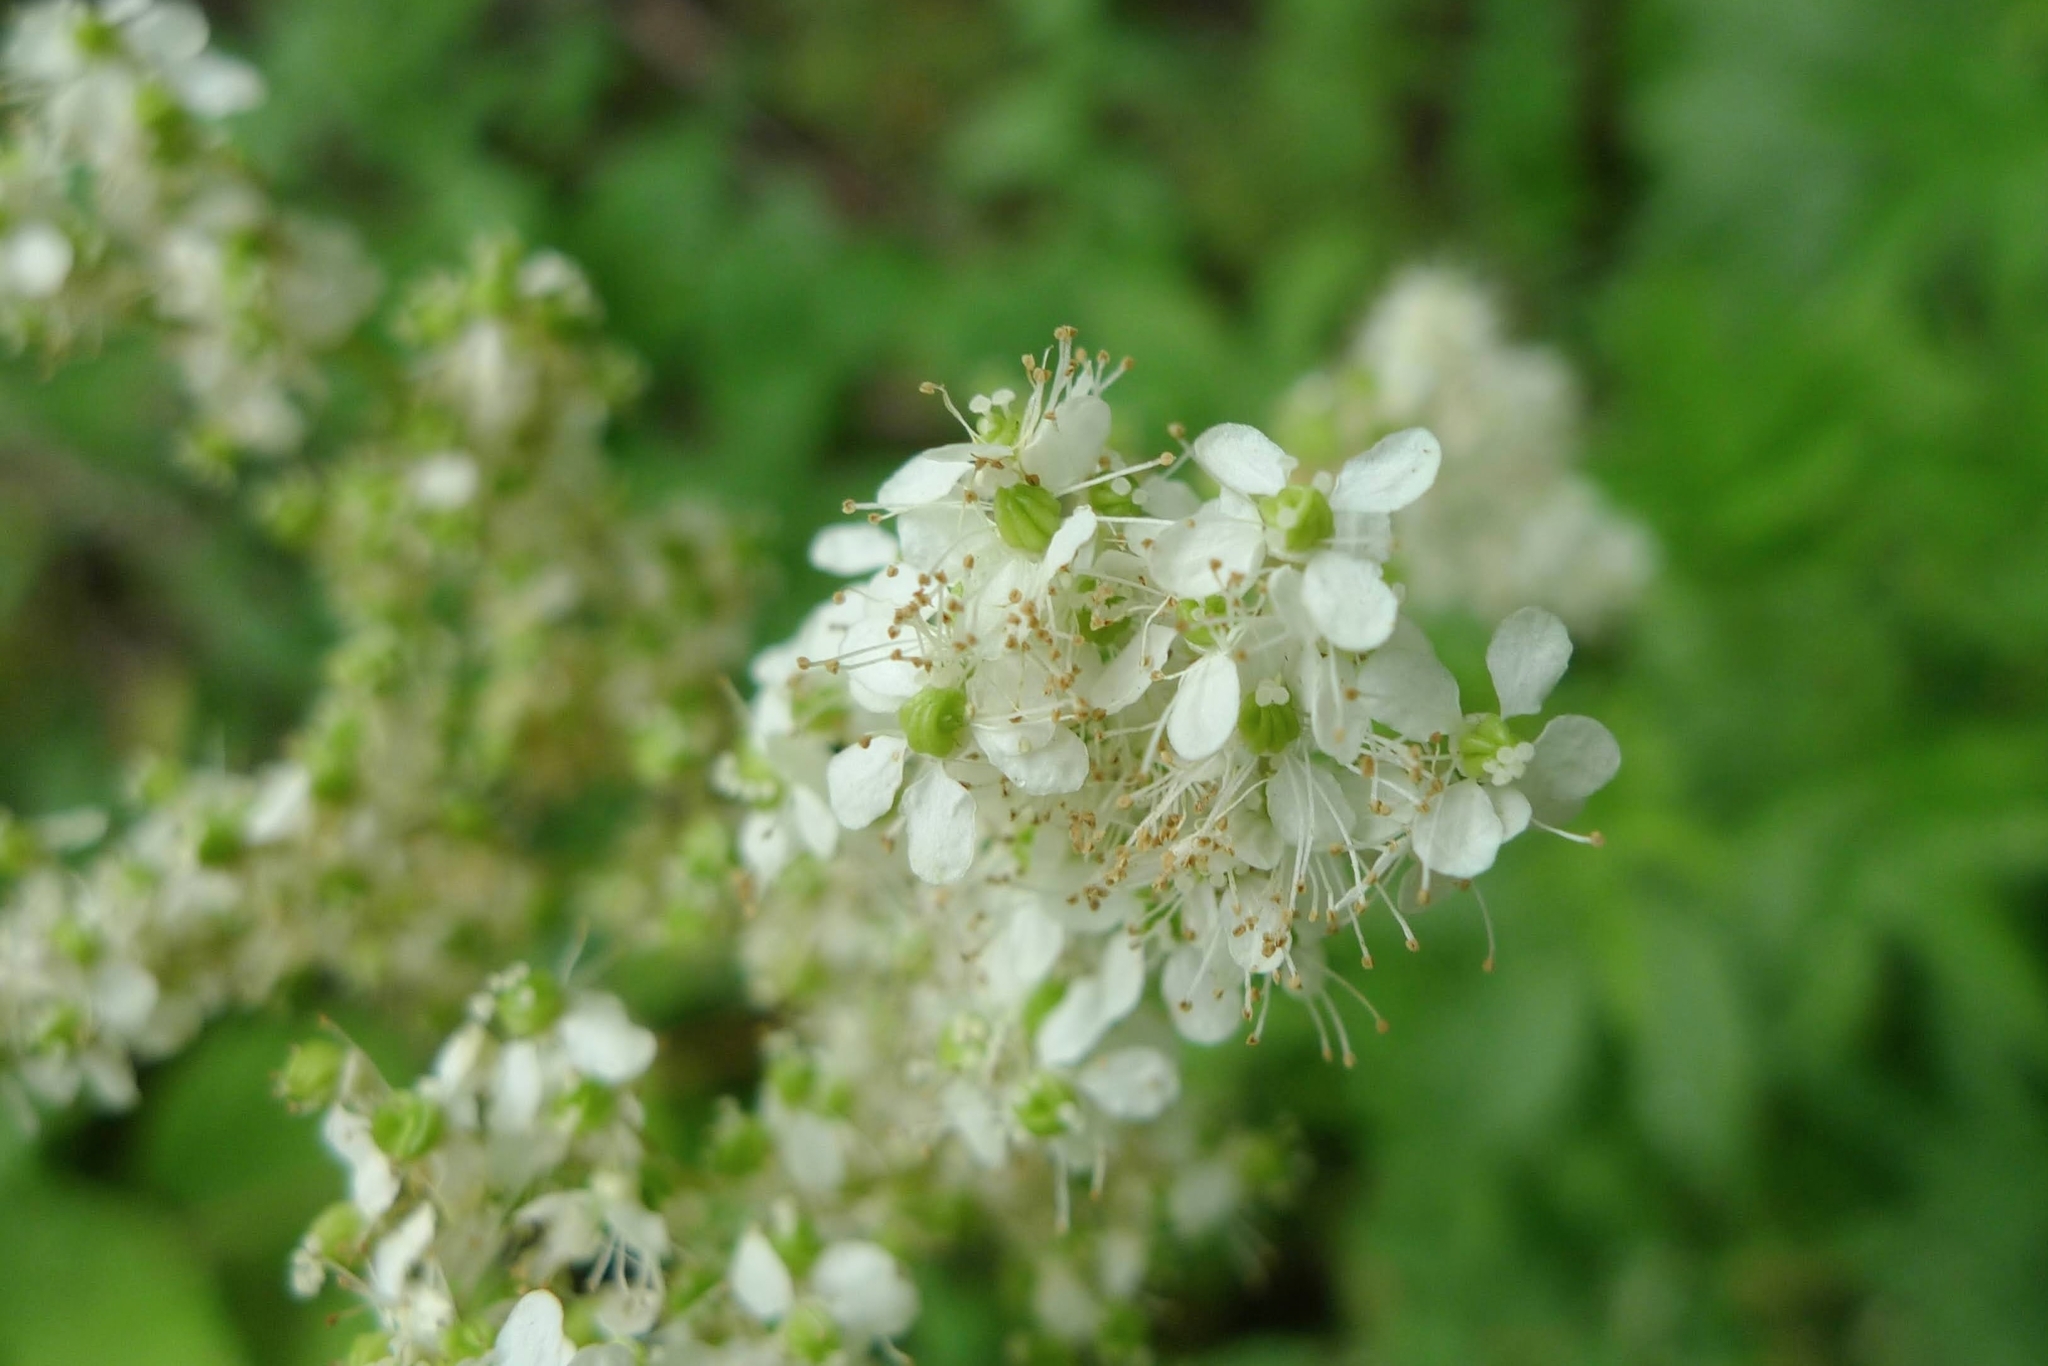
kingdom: Plantae
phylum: Tracheophyta
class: Magnoliopsida
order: Rosales
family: Rosaceae
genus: Filipendula
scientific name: Filipendula ulmaria
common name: Meadowsweet
